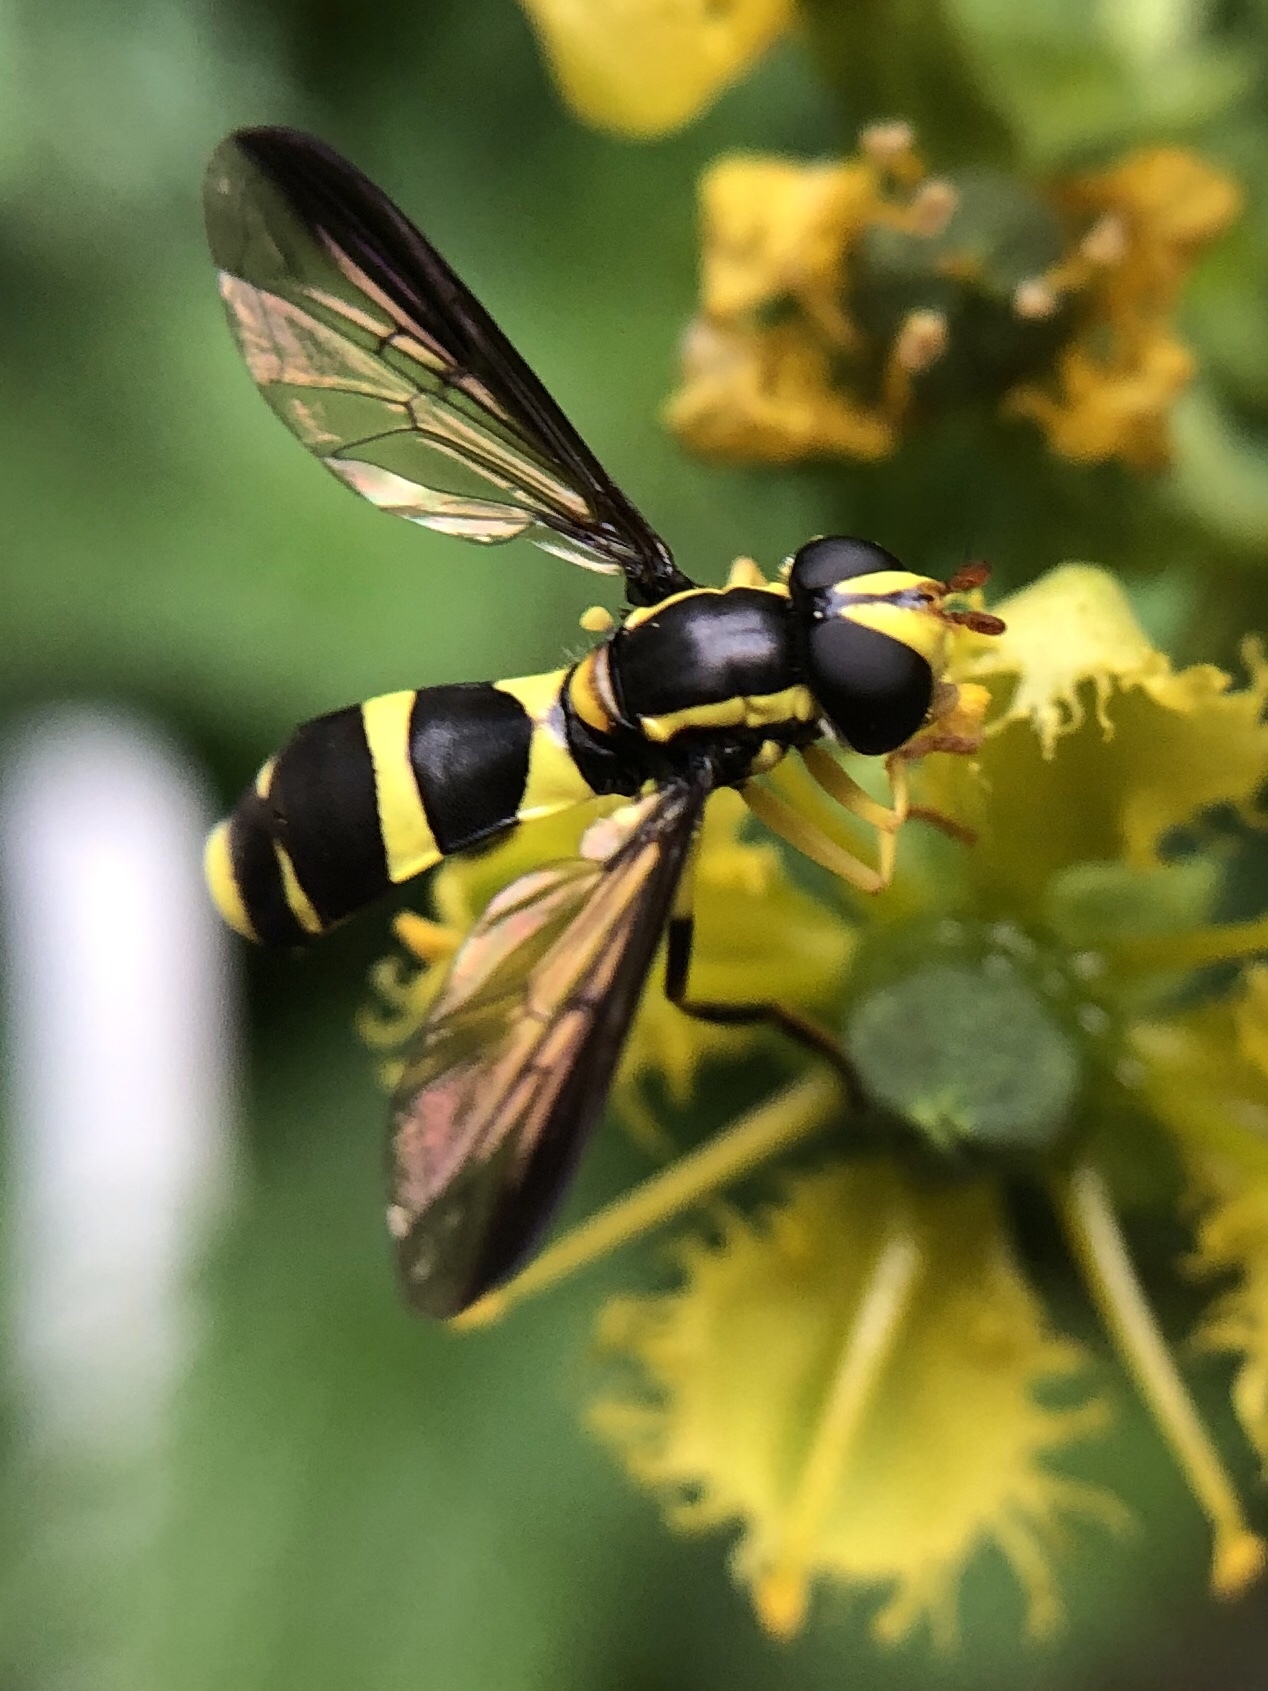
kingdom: Animalia
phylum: Arthropoda
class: Insecta
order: Diptera
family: Syrphidae
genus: Philhelius
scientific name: Philhelius marginalis
